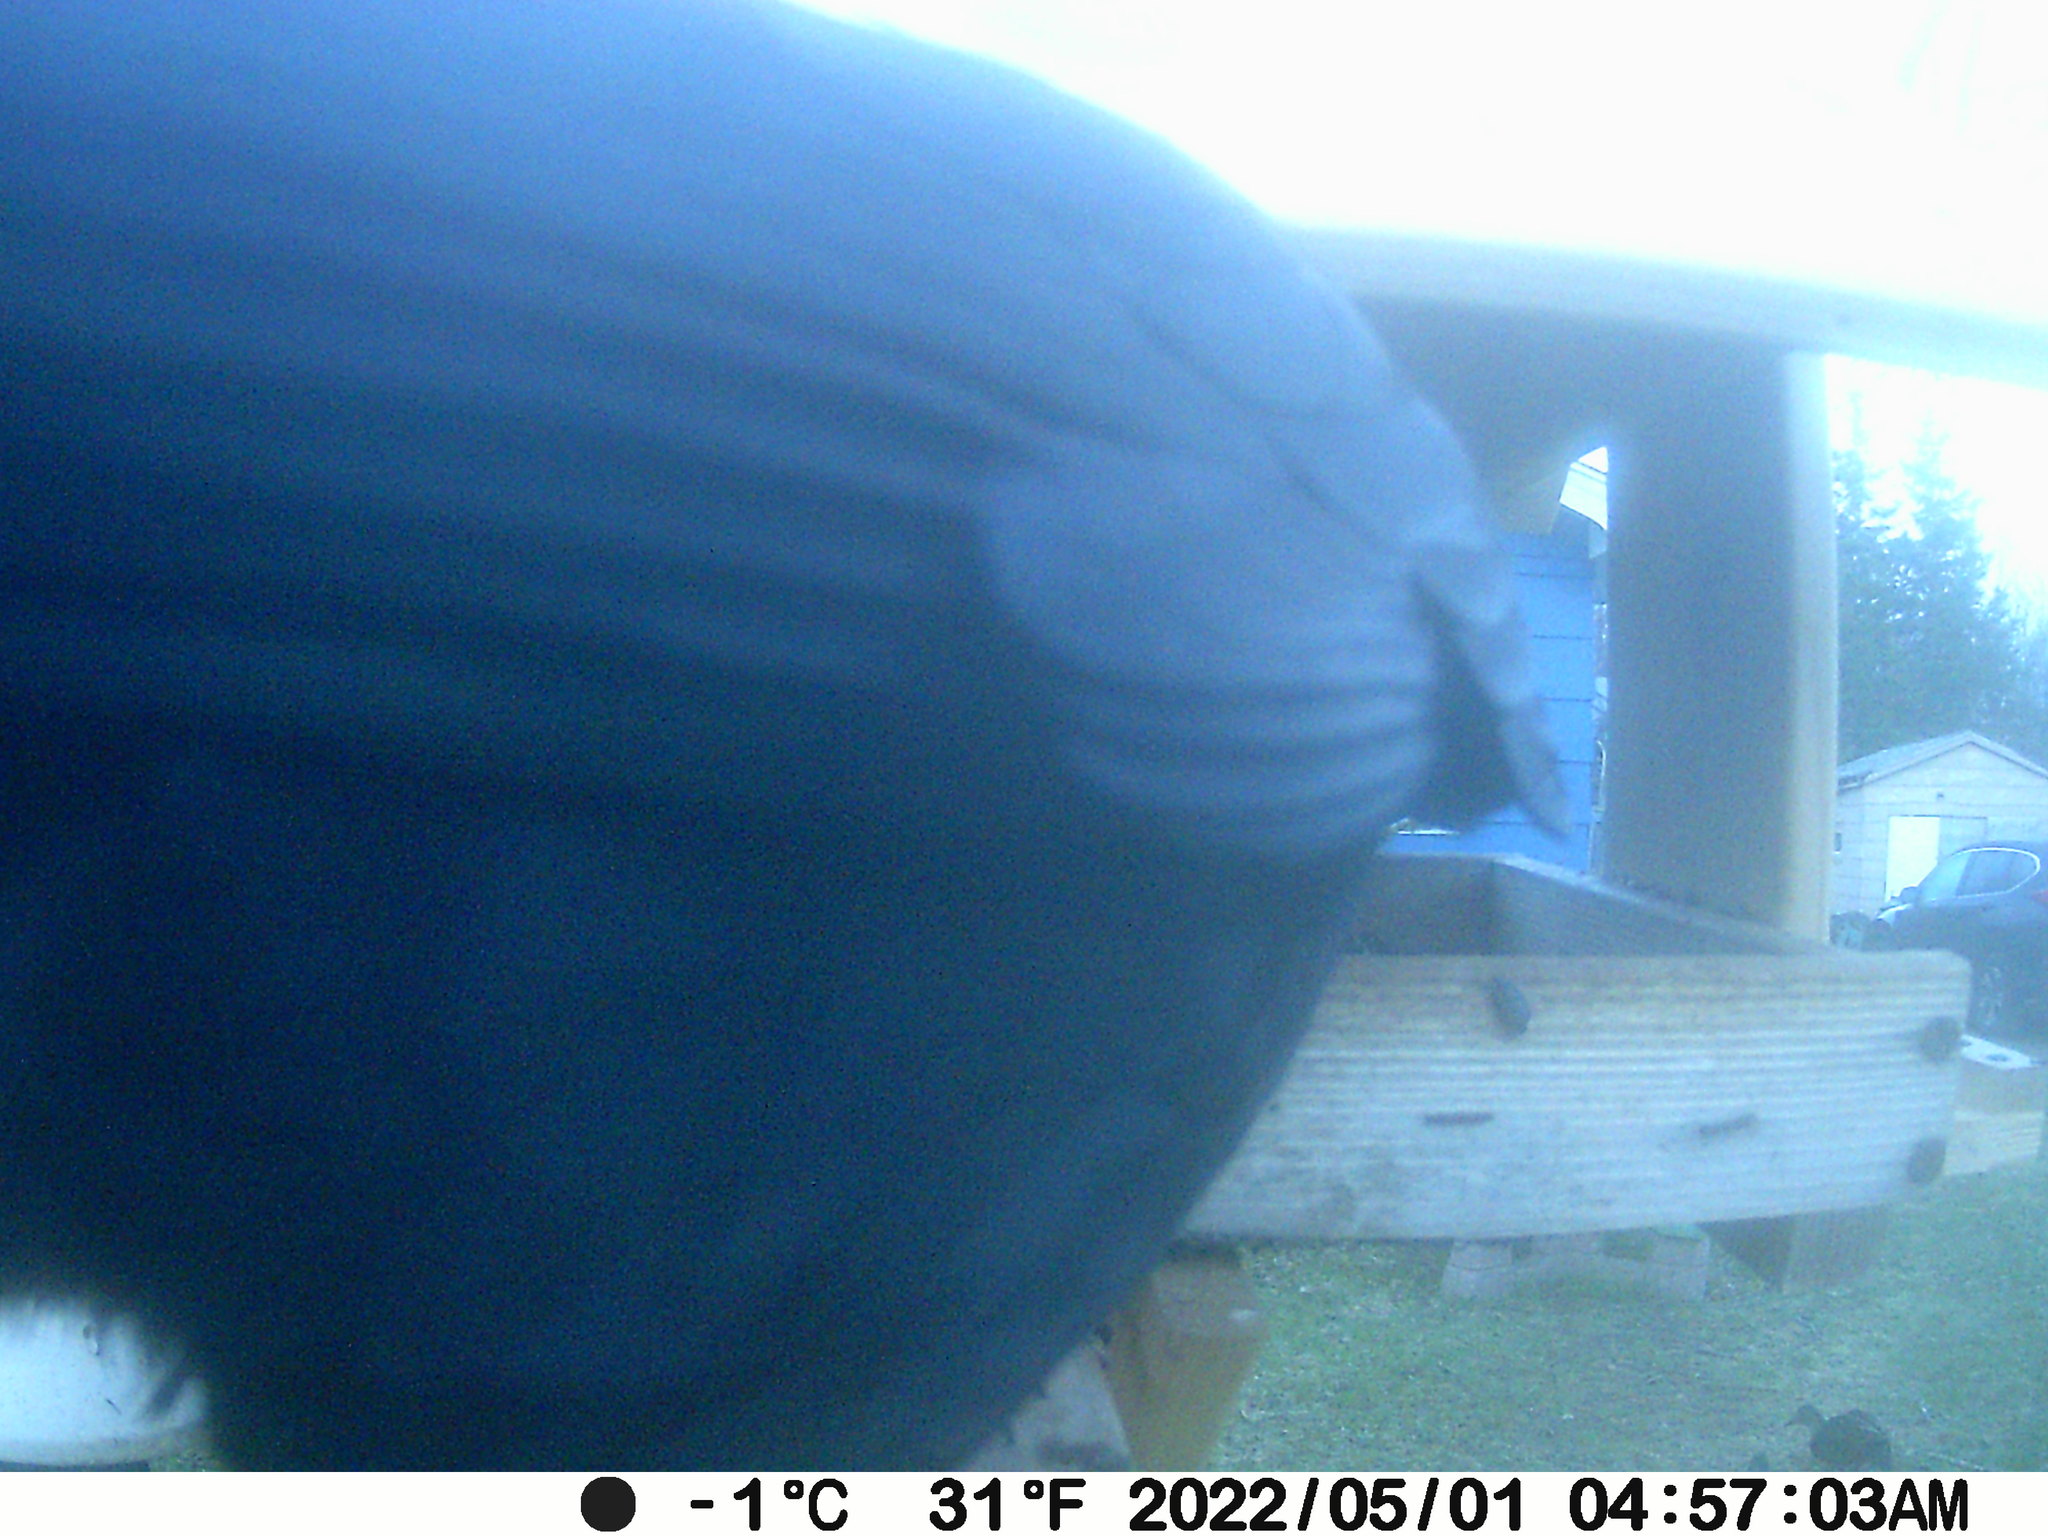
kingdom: Animalia
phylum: Chordata
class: Aves
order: Passeriformes
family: Corvidae
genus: Corvus
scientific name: Corvus brachyrhynchos
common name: American crow
